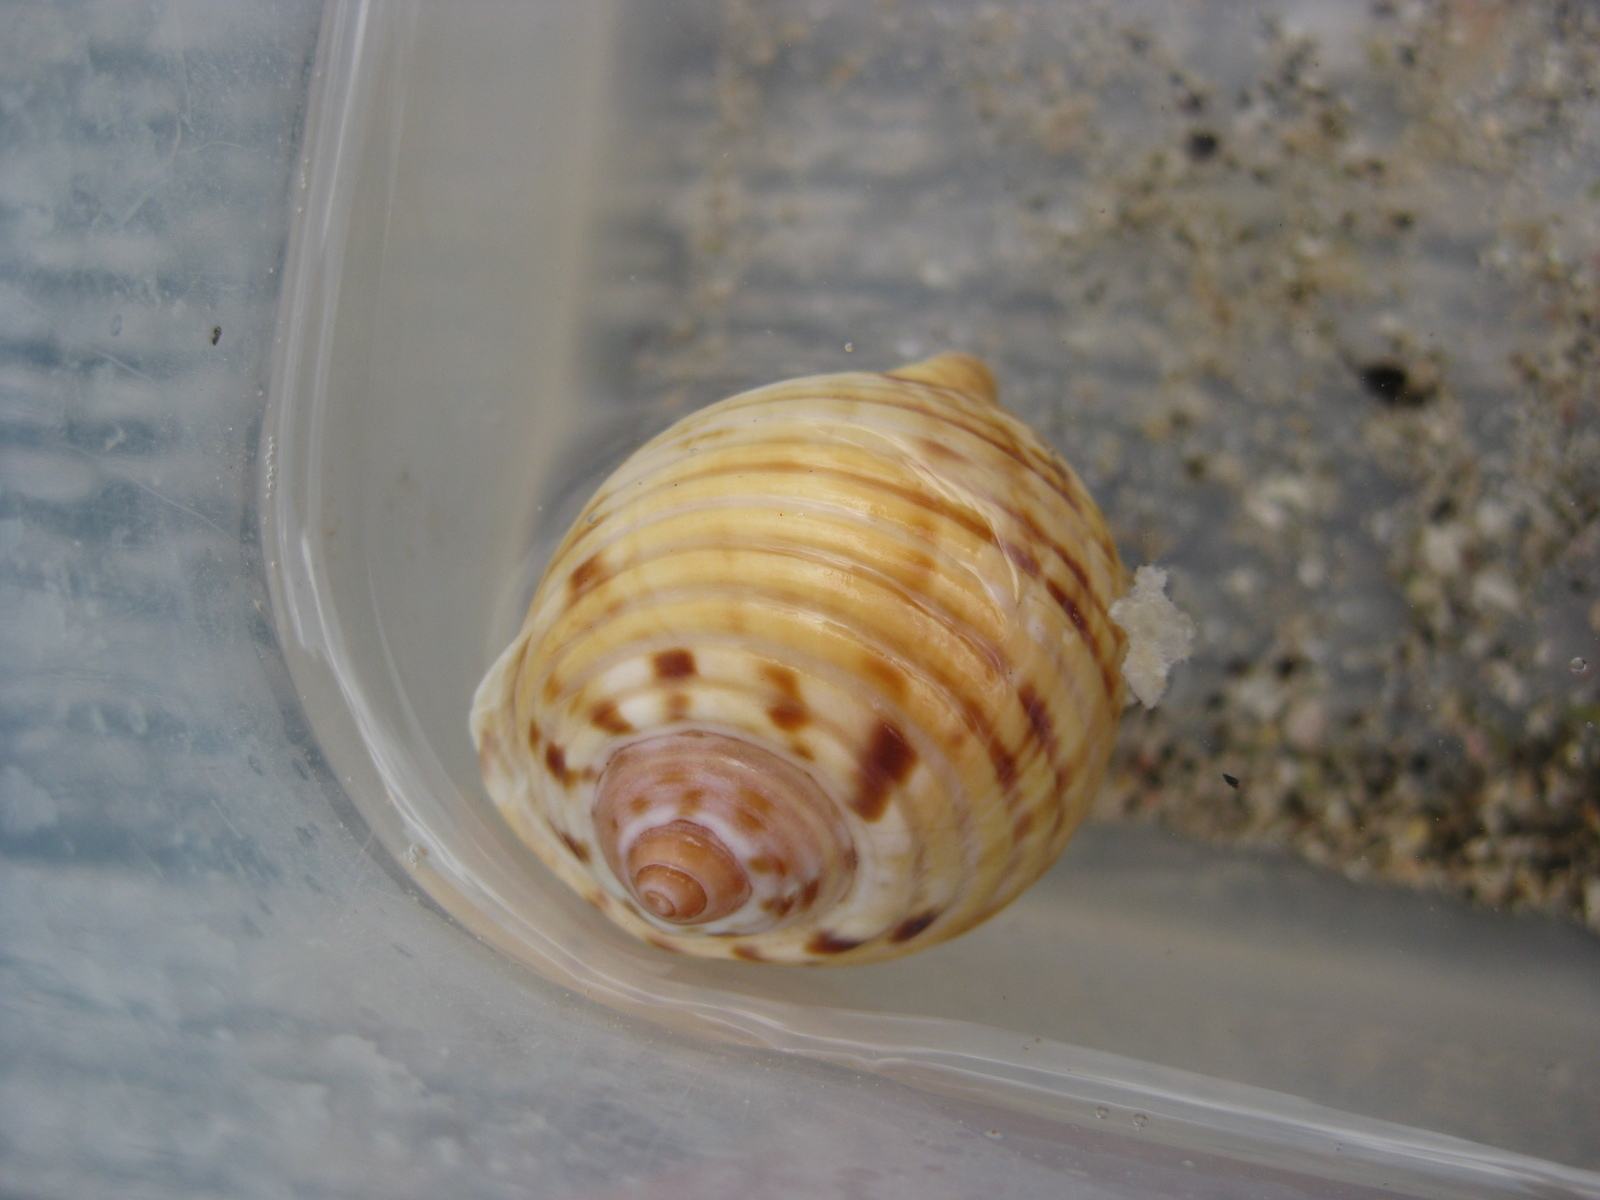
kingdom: Animalia
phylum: Mollusca
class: Gastropoda
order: Littorinimorpha
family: Tonnidae
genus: Tonna
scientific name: Tonna tankervillii
